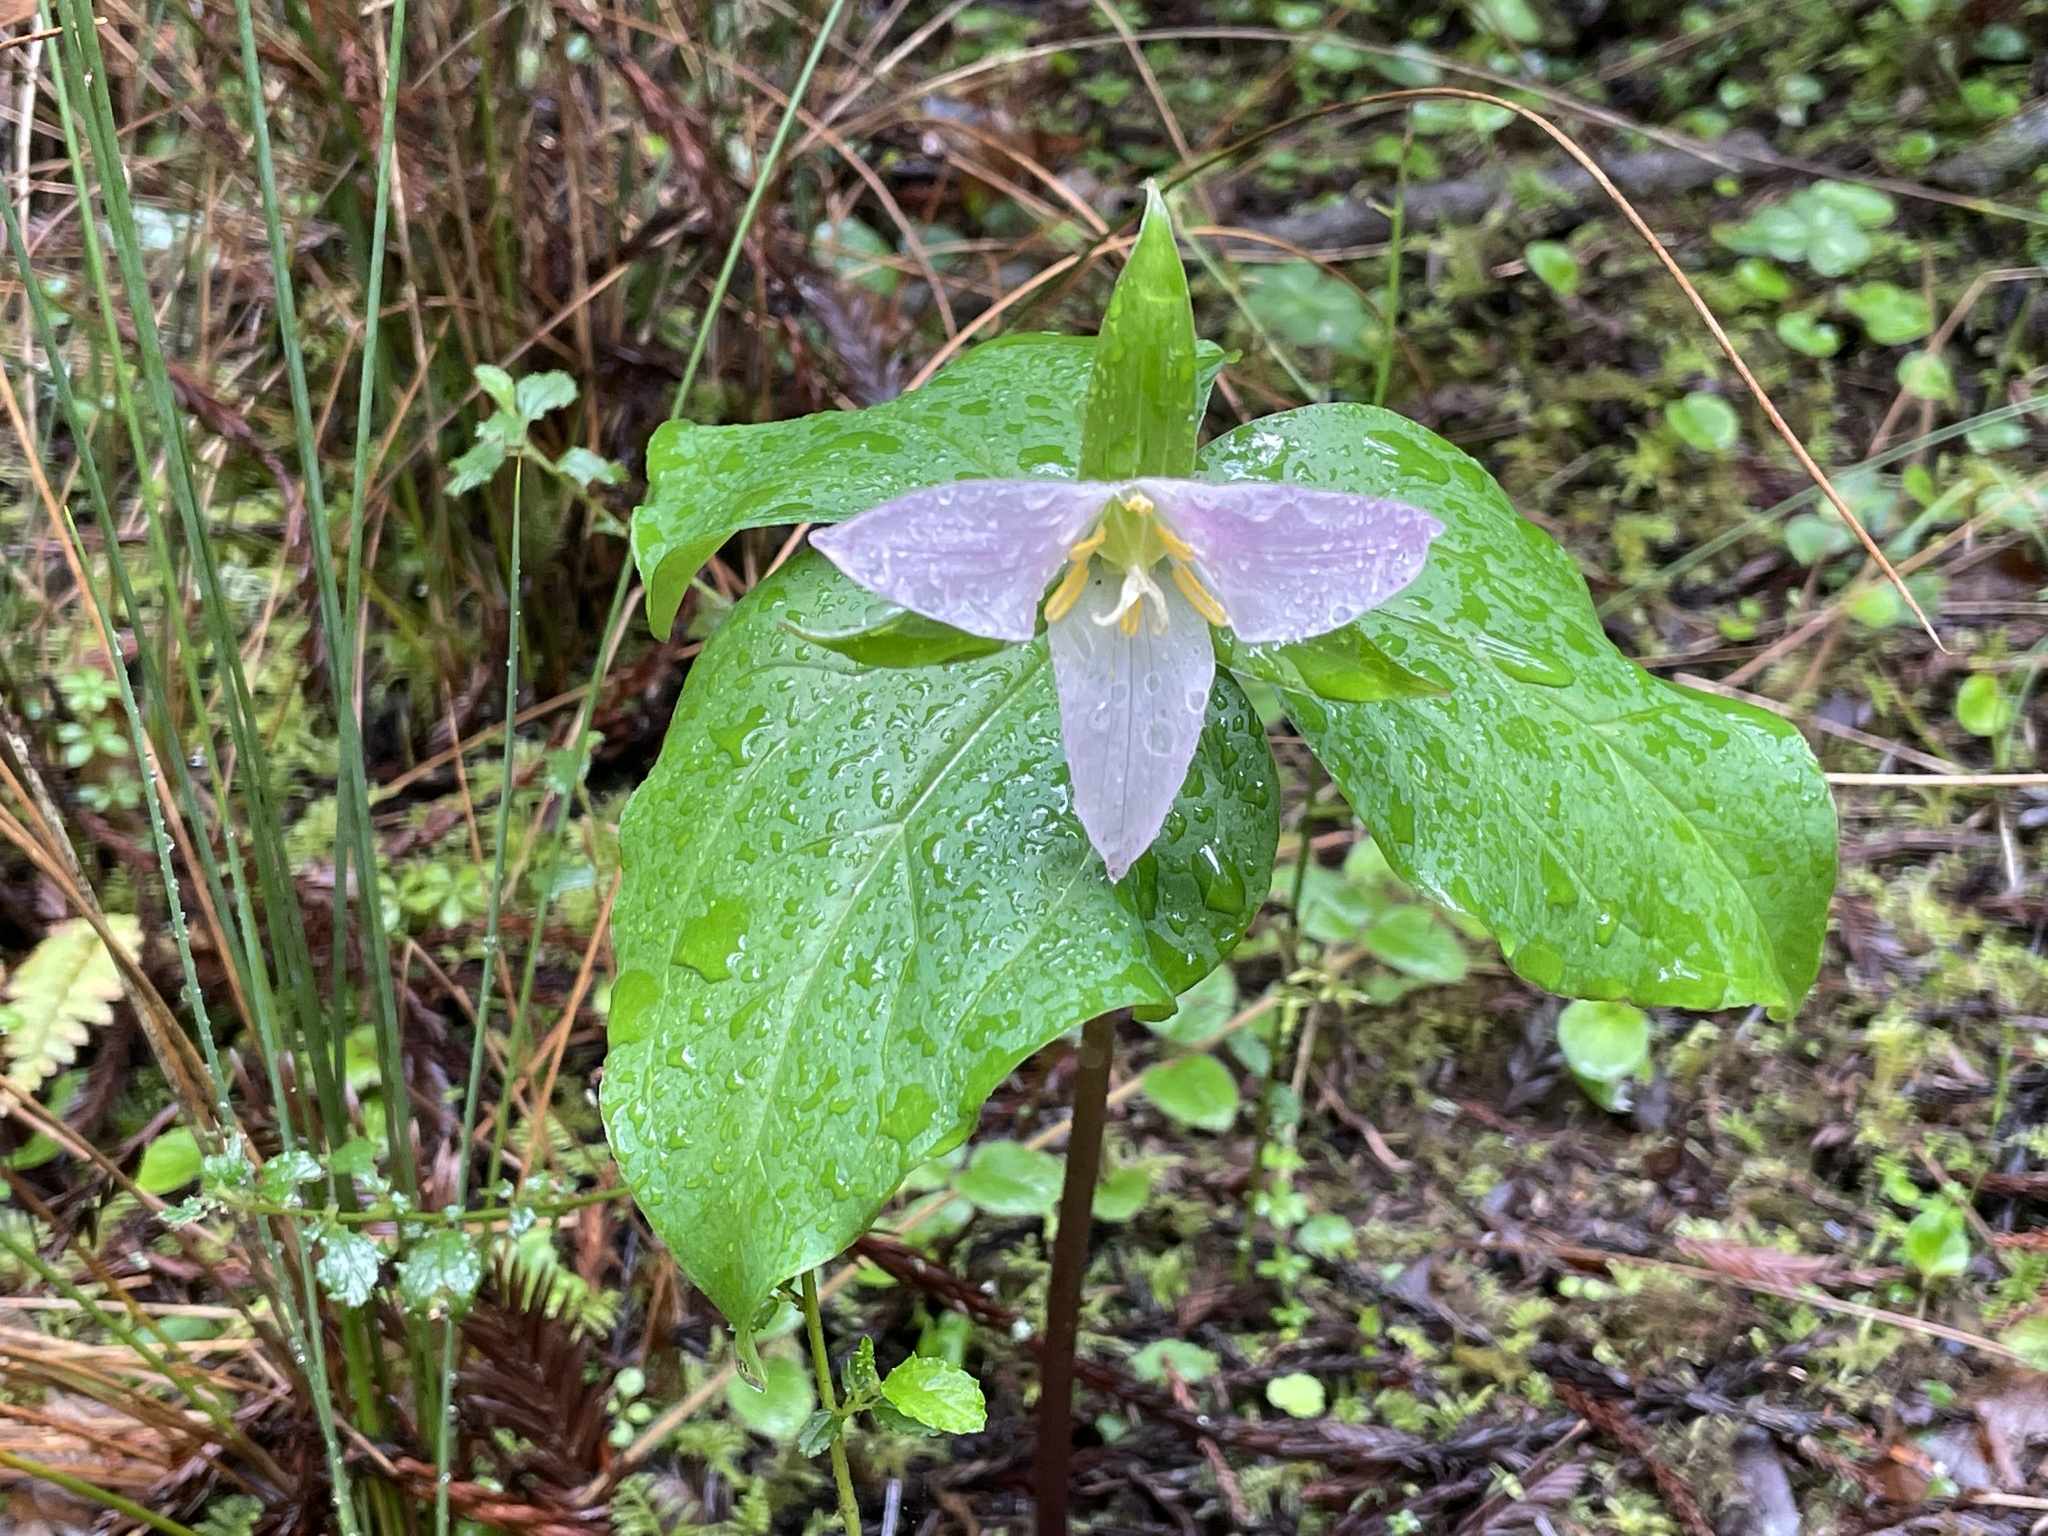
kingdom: Plantae
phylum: Tracheophyta
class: Liliopsida
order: Liliales
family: Melanthiaceae
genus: Trillium
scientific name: Trillium ovatum
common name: Pacific trillium
